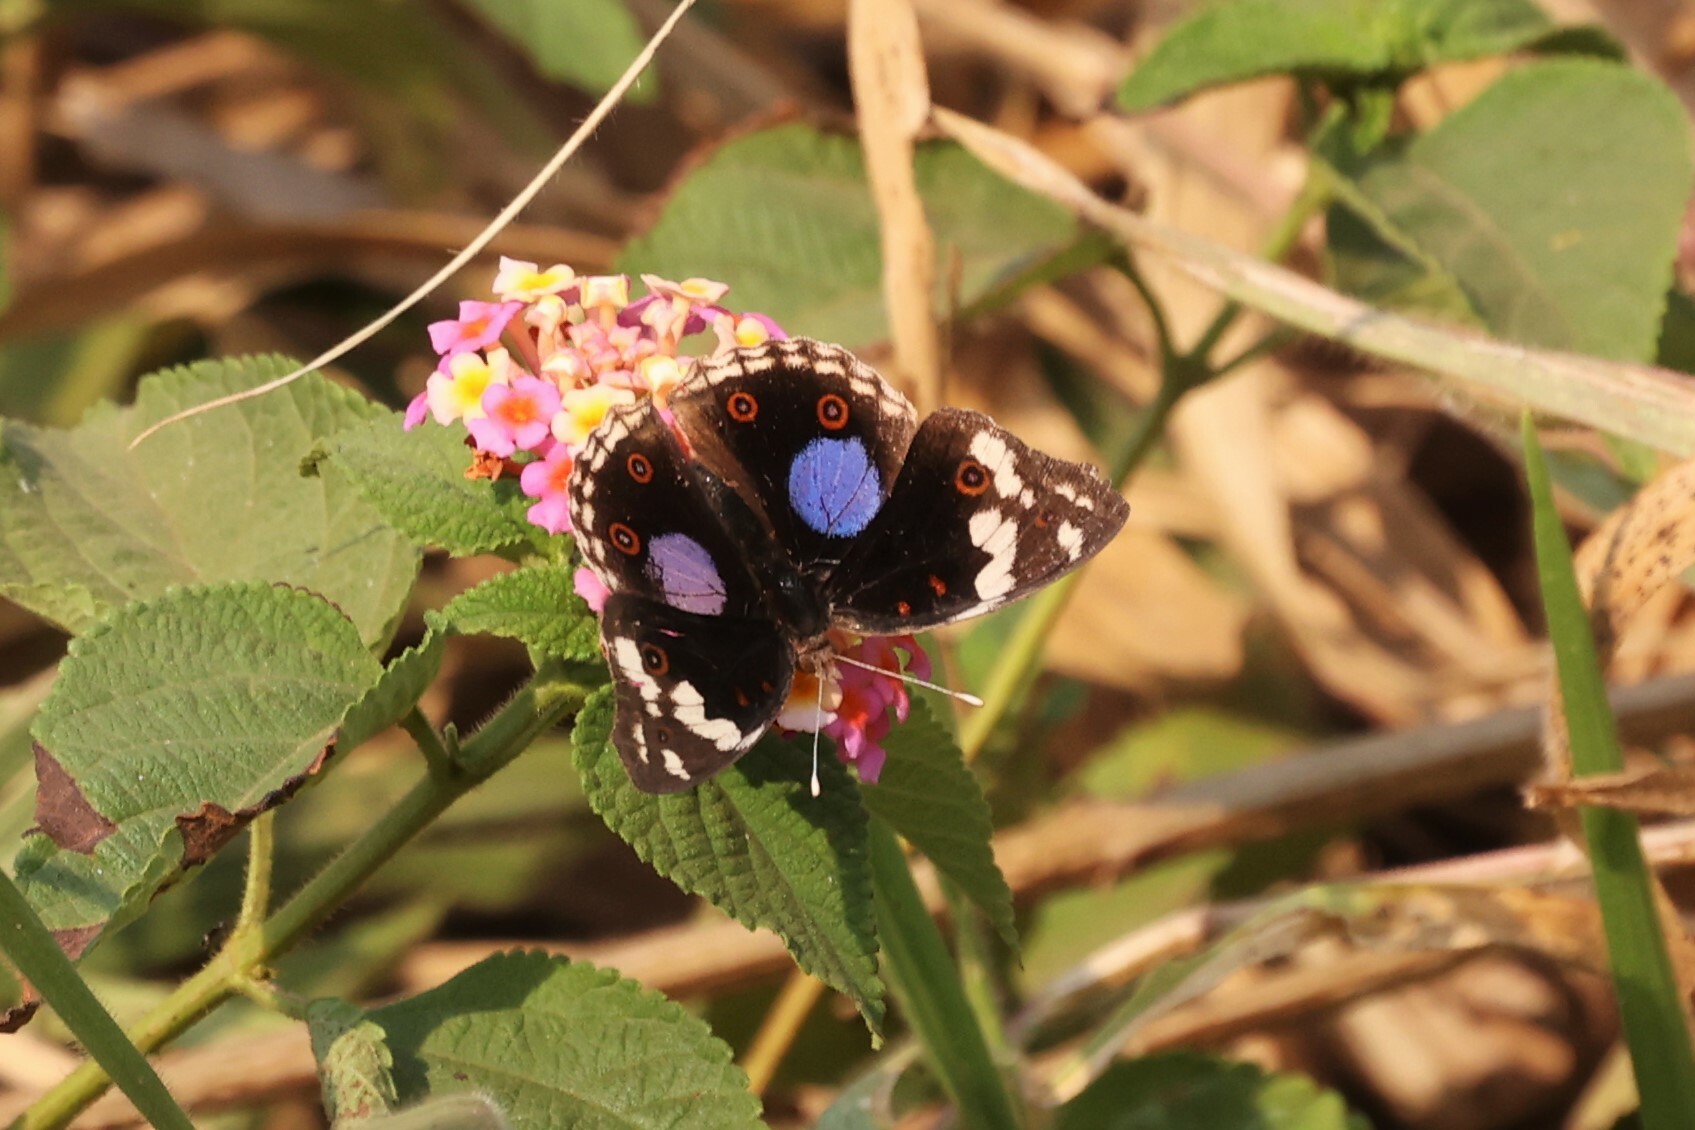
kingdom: Animalia
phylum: Arthropoda
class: Insecta
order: Lepidoptera
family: Nymphalidae
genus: Junonia
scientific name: Junonia oenone
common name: Dark blue pansy
